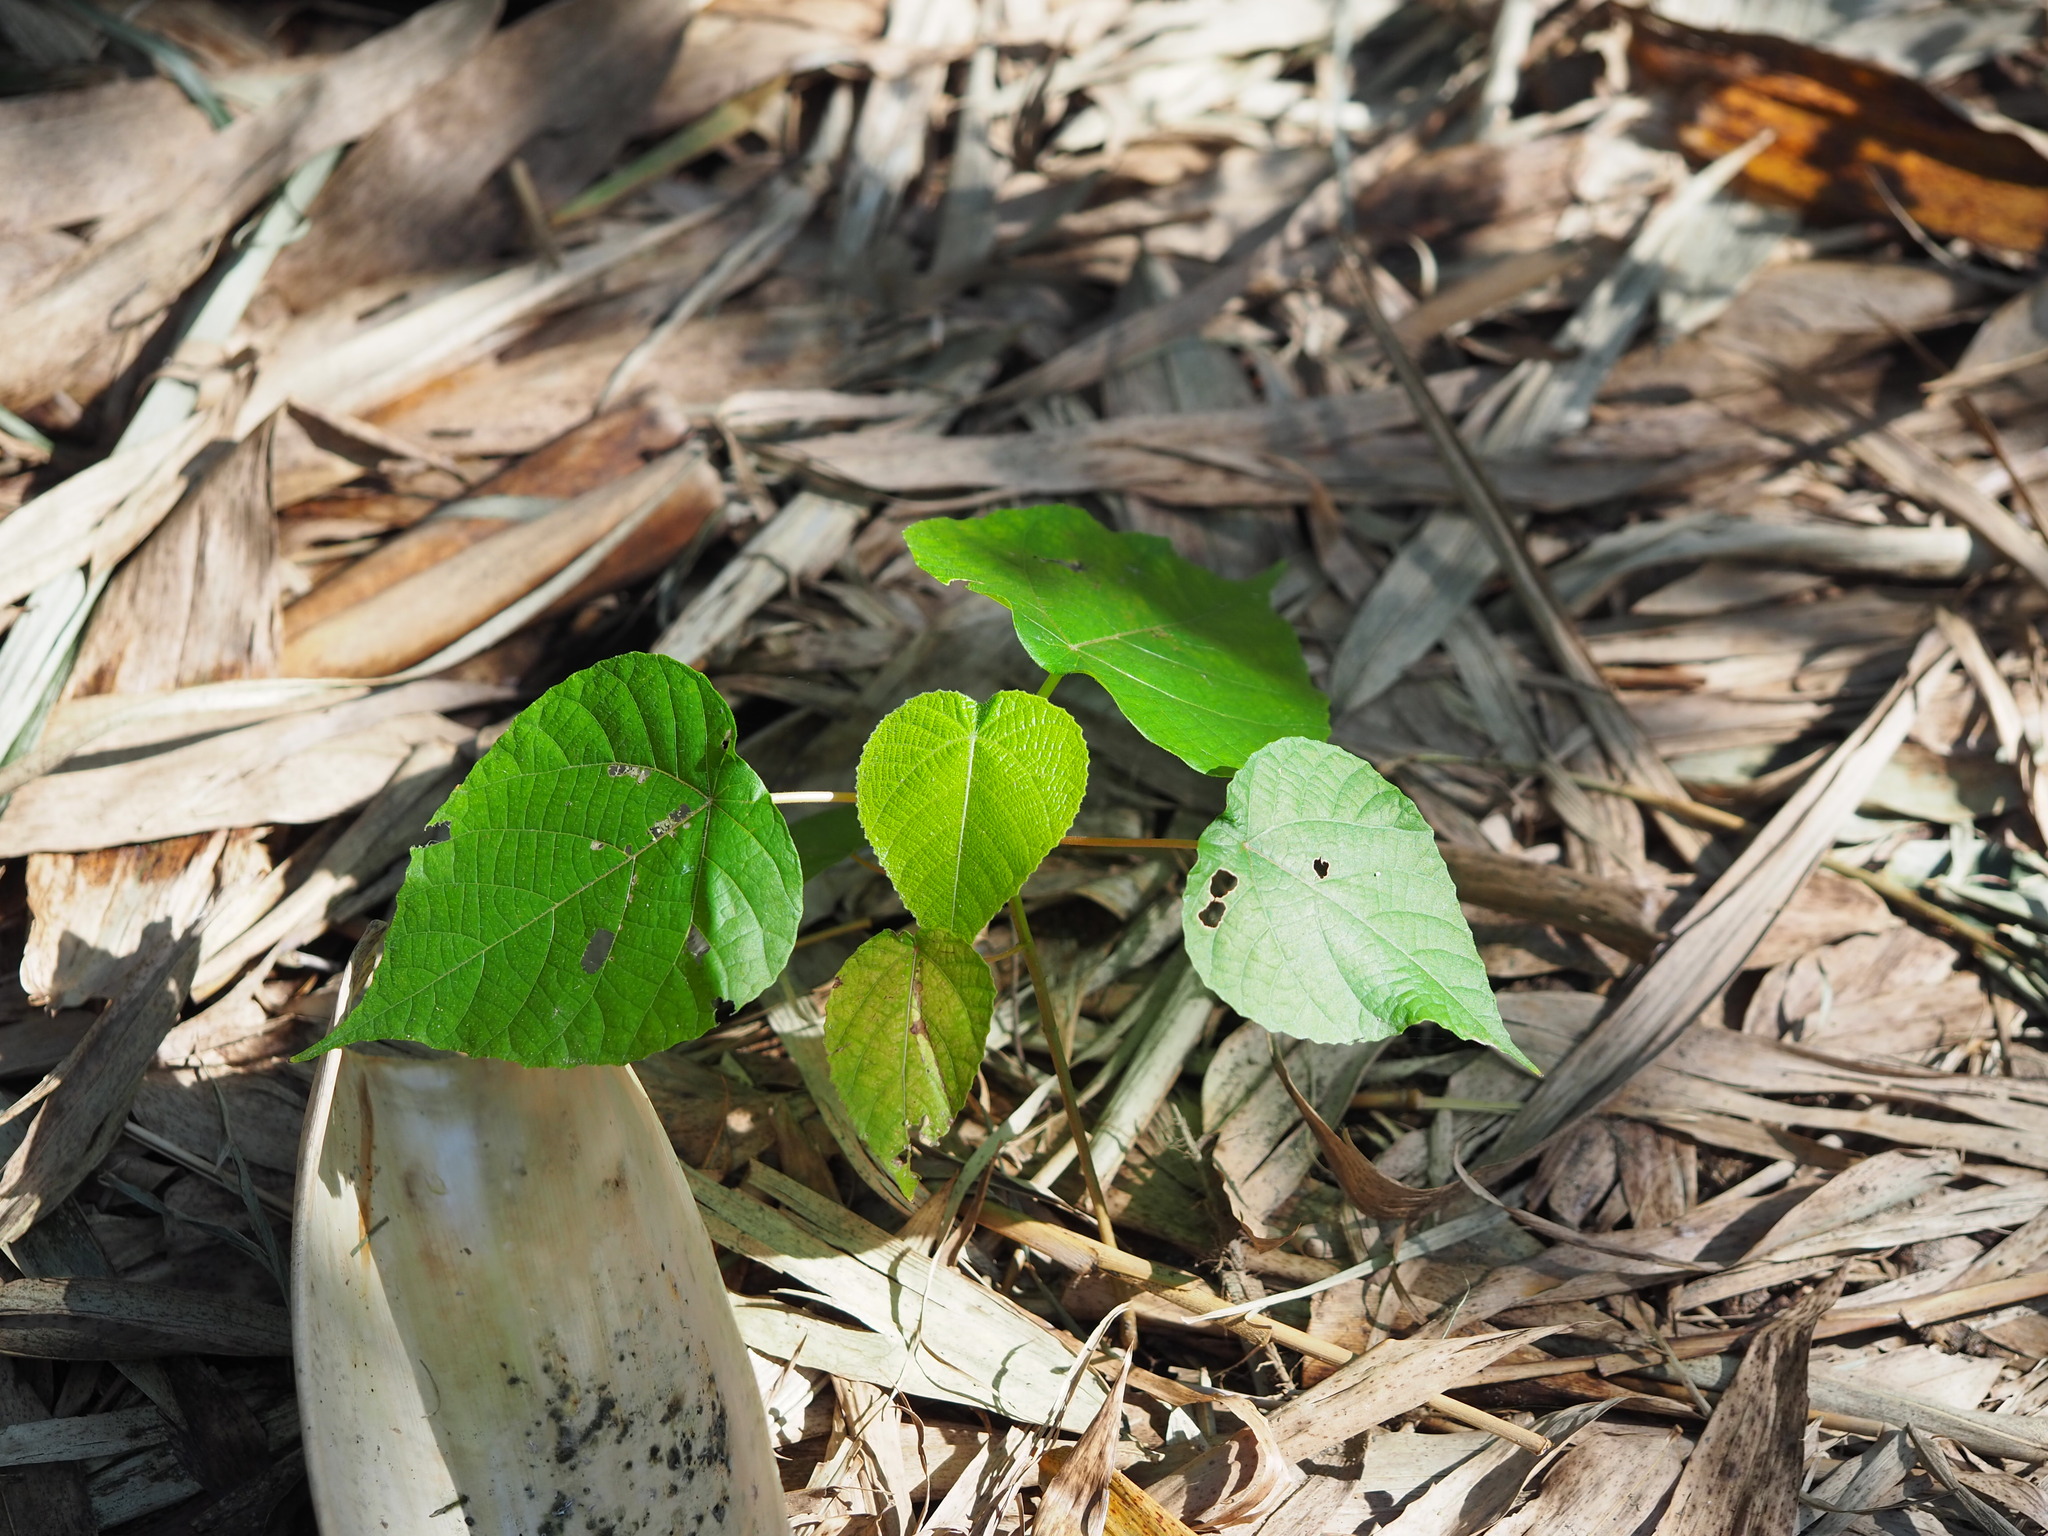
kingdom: Plantae
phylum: Tracheophyta
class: Magnoliopsida
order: Malpighiales
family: Euphorbiaceae
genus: Macaranga
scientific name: Macaranga tanarius
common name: Parasol leaf tree
